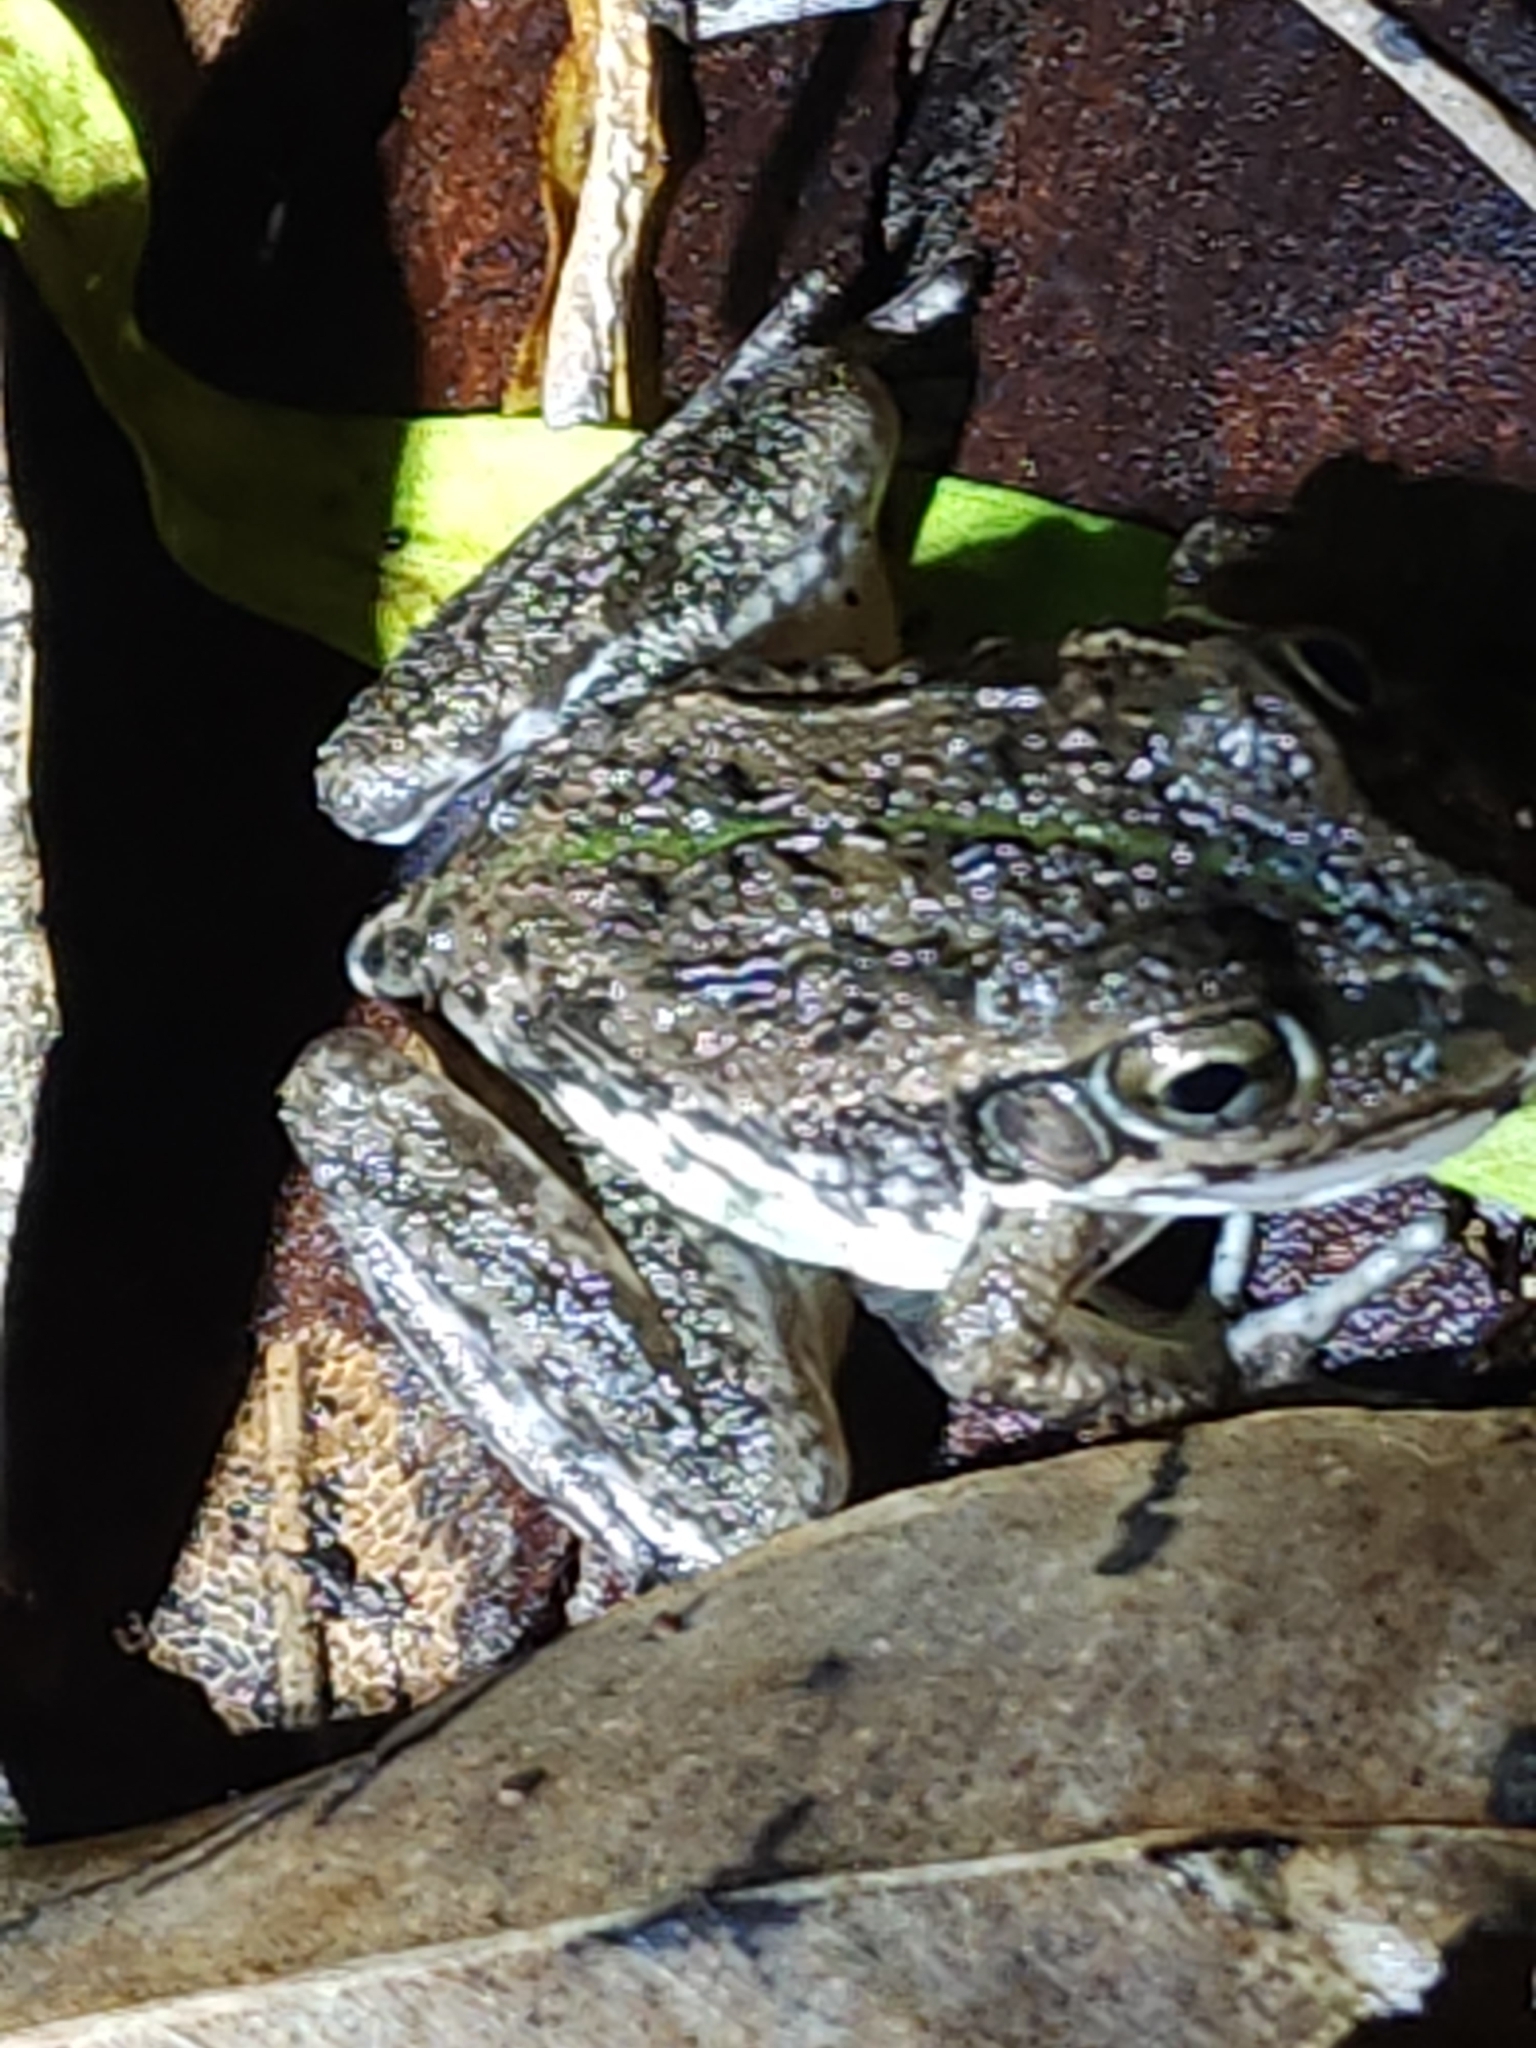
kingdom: Animalia
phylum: Chordata
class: Amphibia
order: Anura
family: Pelodryadidae
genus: Ranoidea
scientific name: Ranoidea alboguttata
